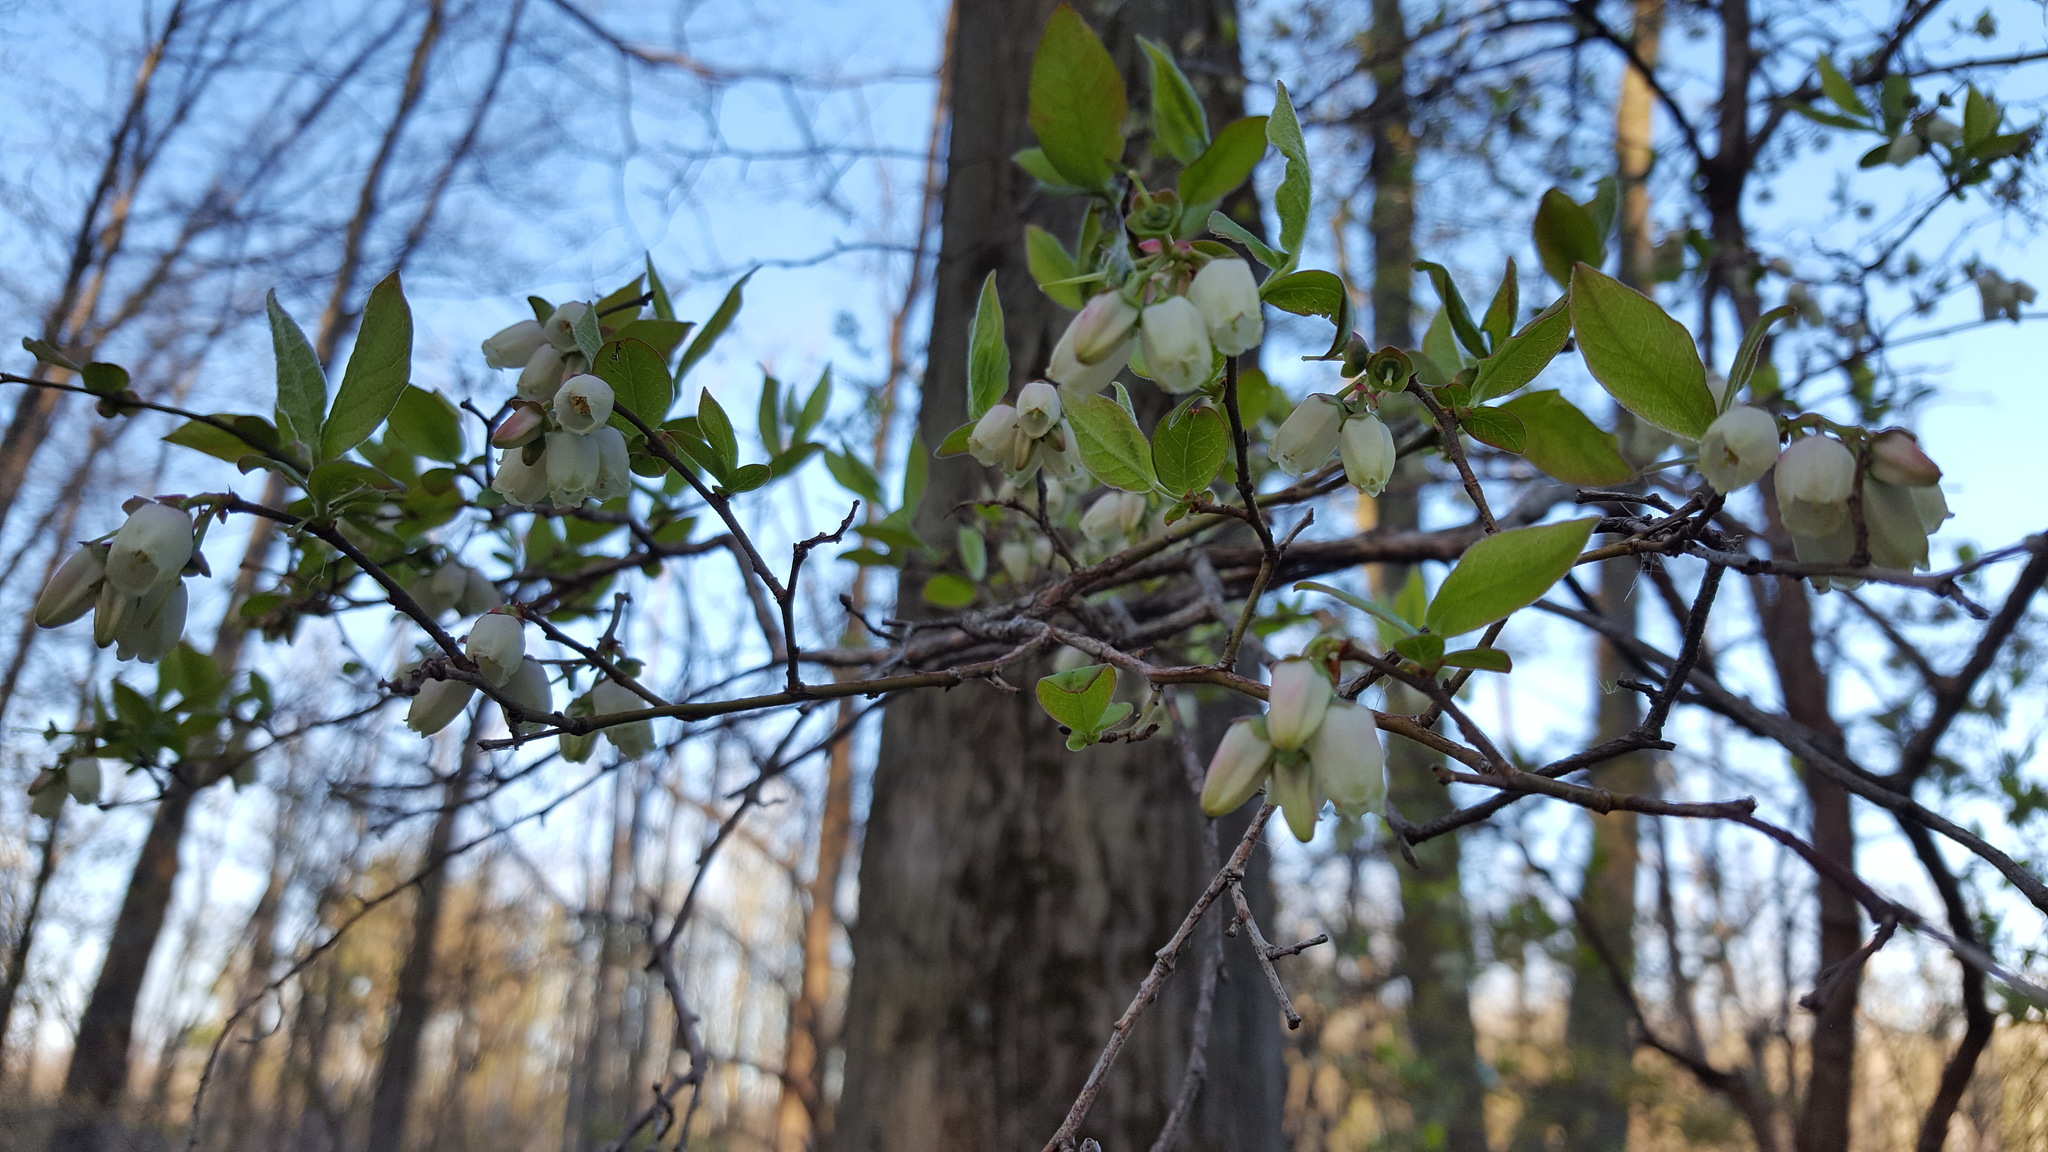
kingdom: Plantae
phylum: Tracheophyta
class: Magnoliopsida
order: Ericales
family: Ericaceae
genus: Vaccinium
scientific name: Vaccinium corymbosum
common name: Blueberry
